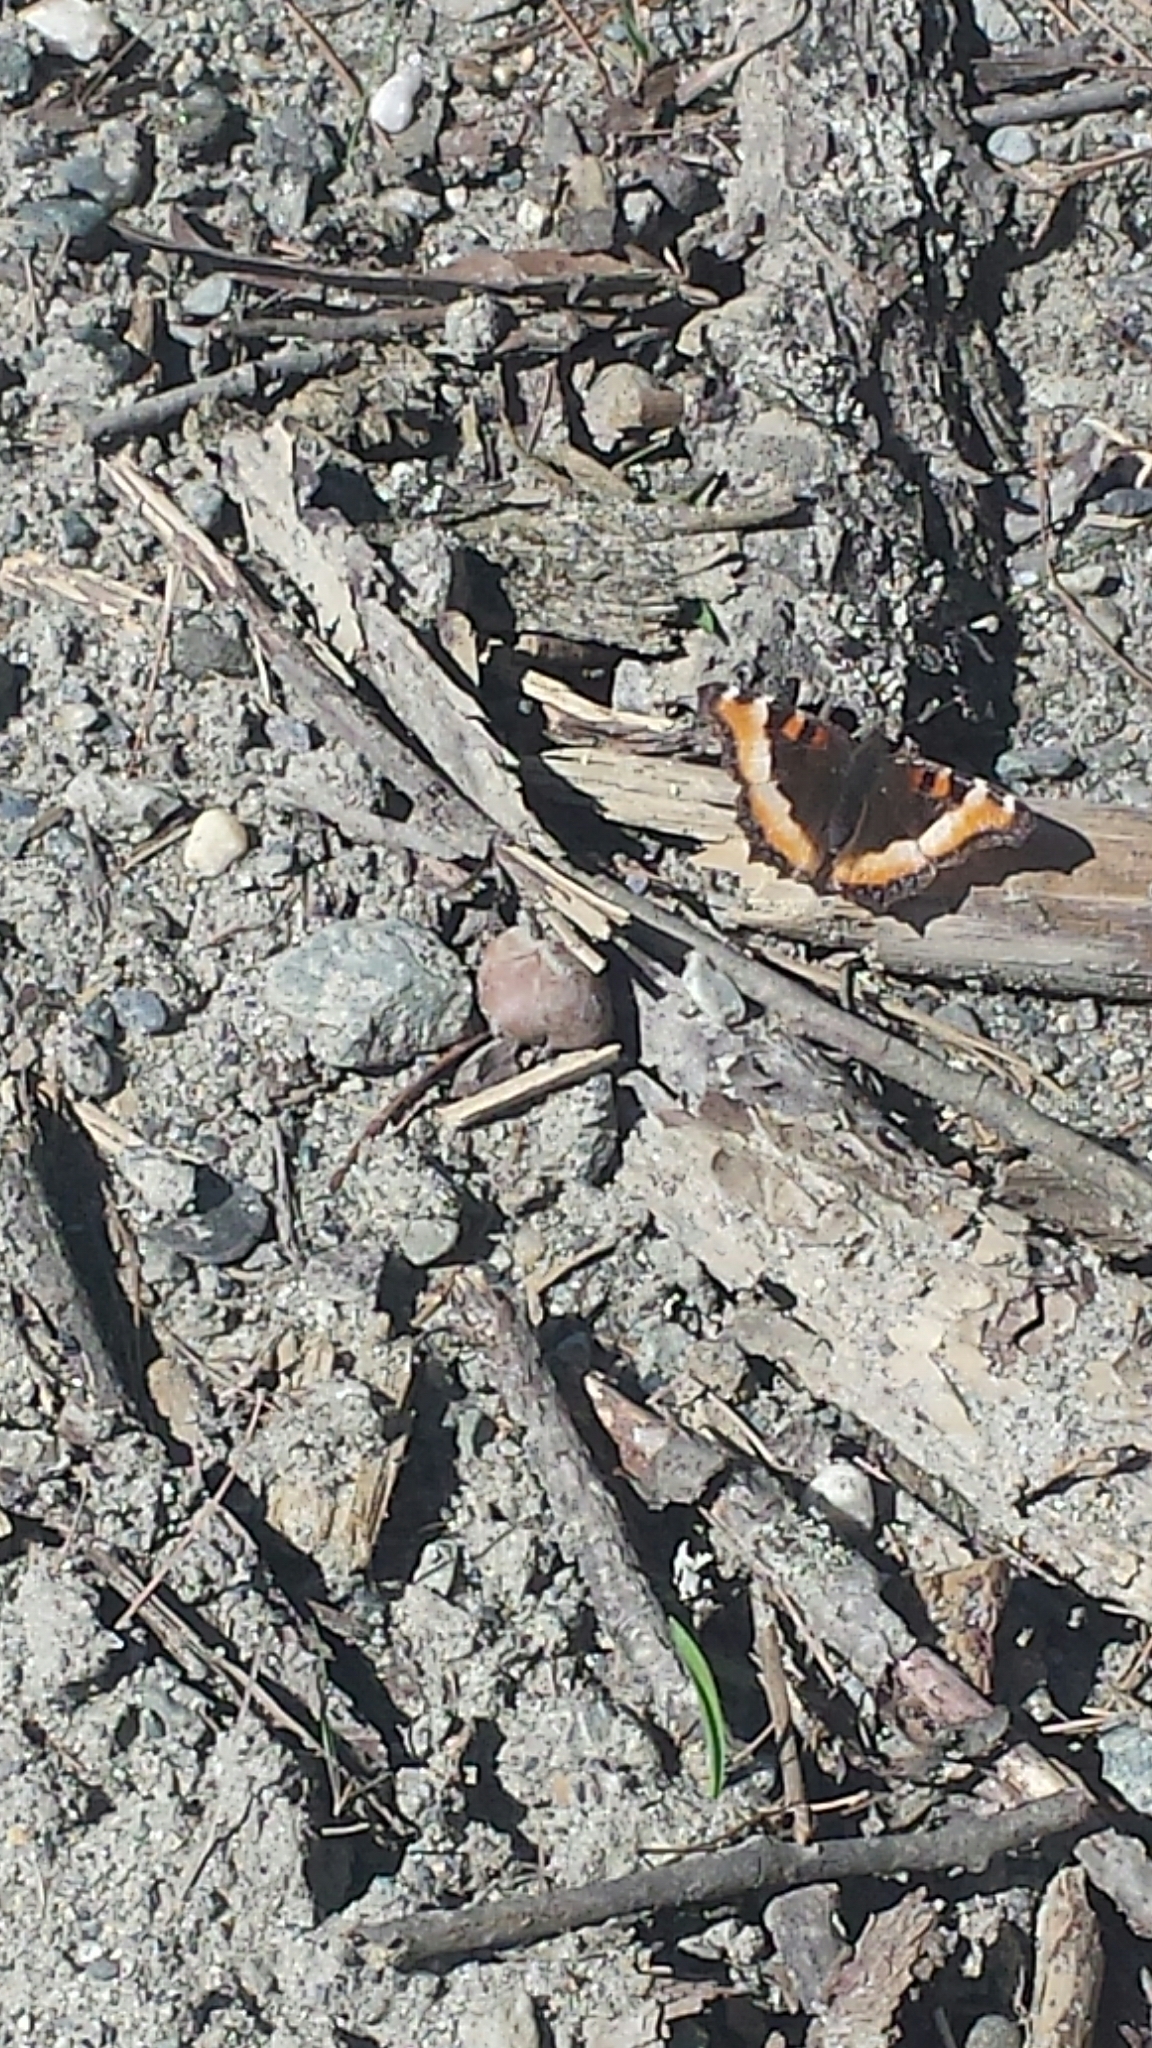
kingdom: Animalia
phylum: Arthropoda
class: Insecta
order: Lepidoptera
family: Nymphalidae
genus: Aglais
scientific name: Aglais milberti
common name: Milbert's tortoiseshell
